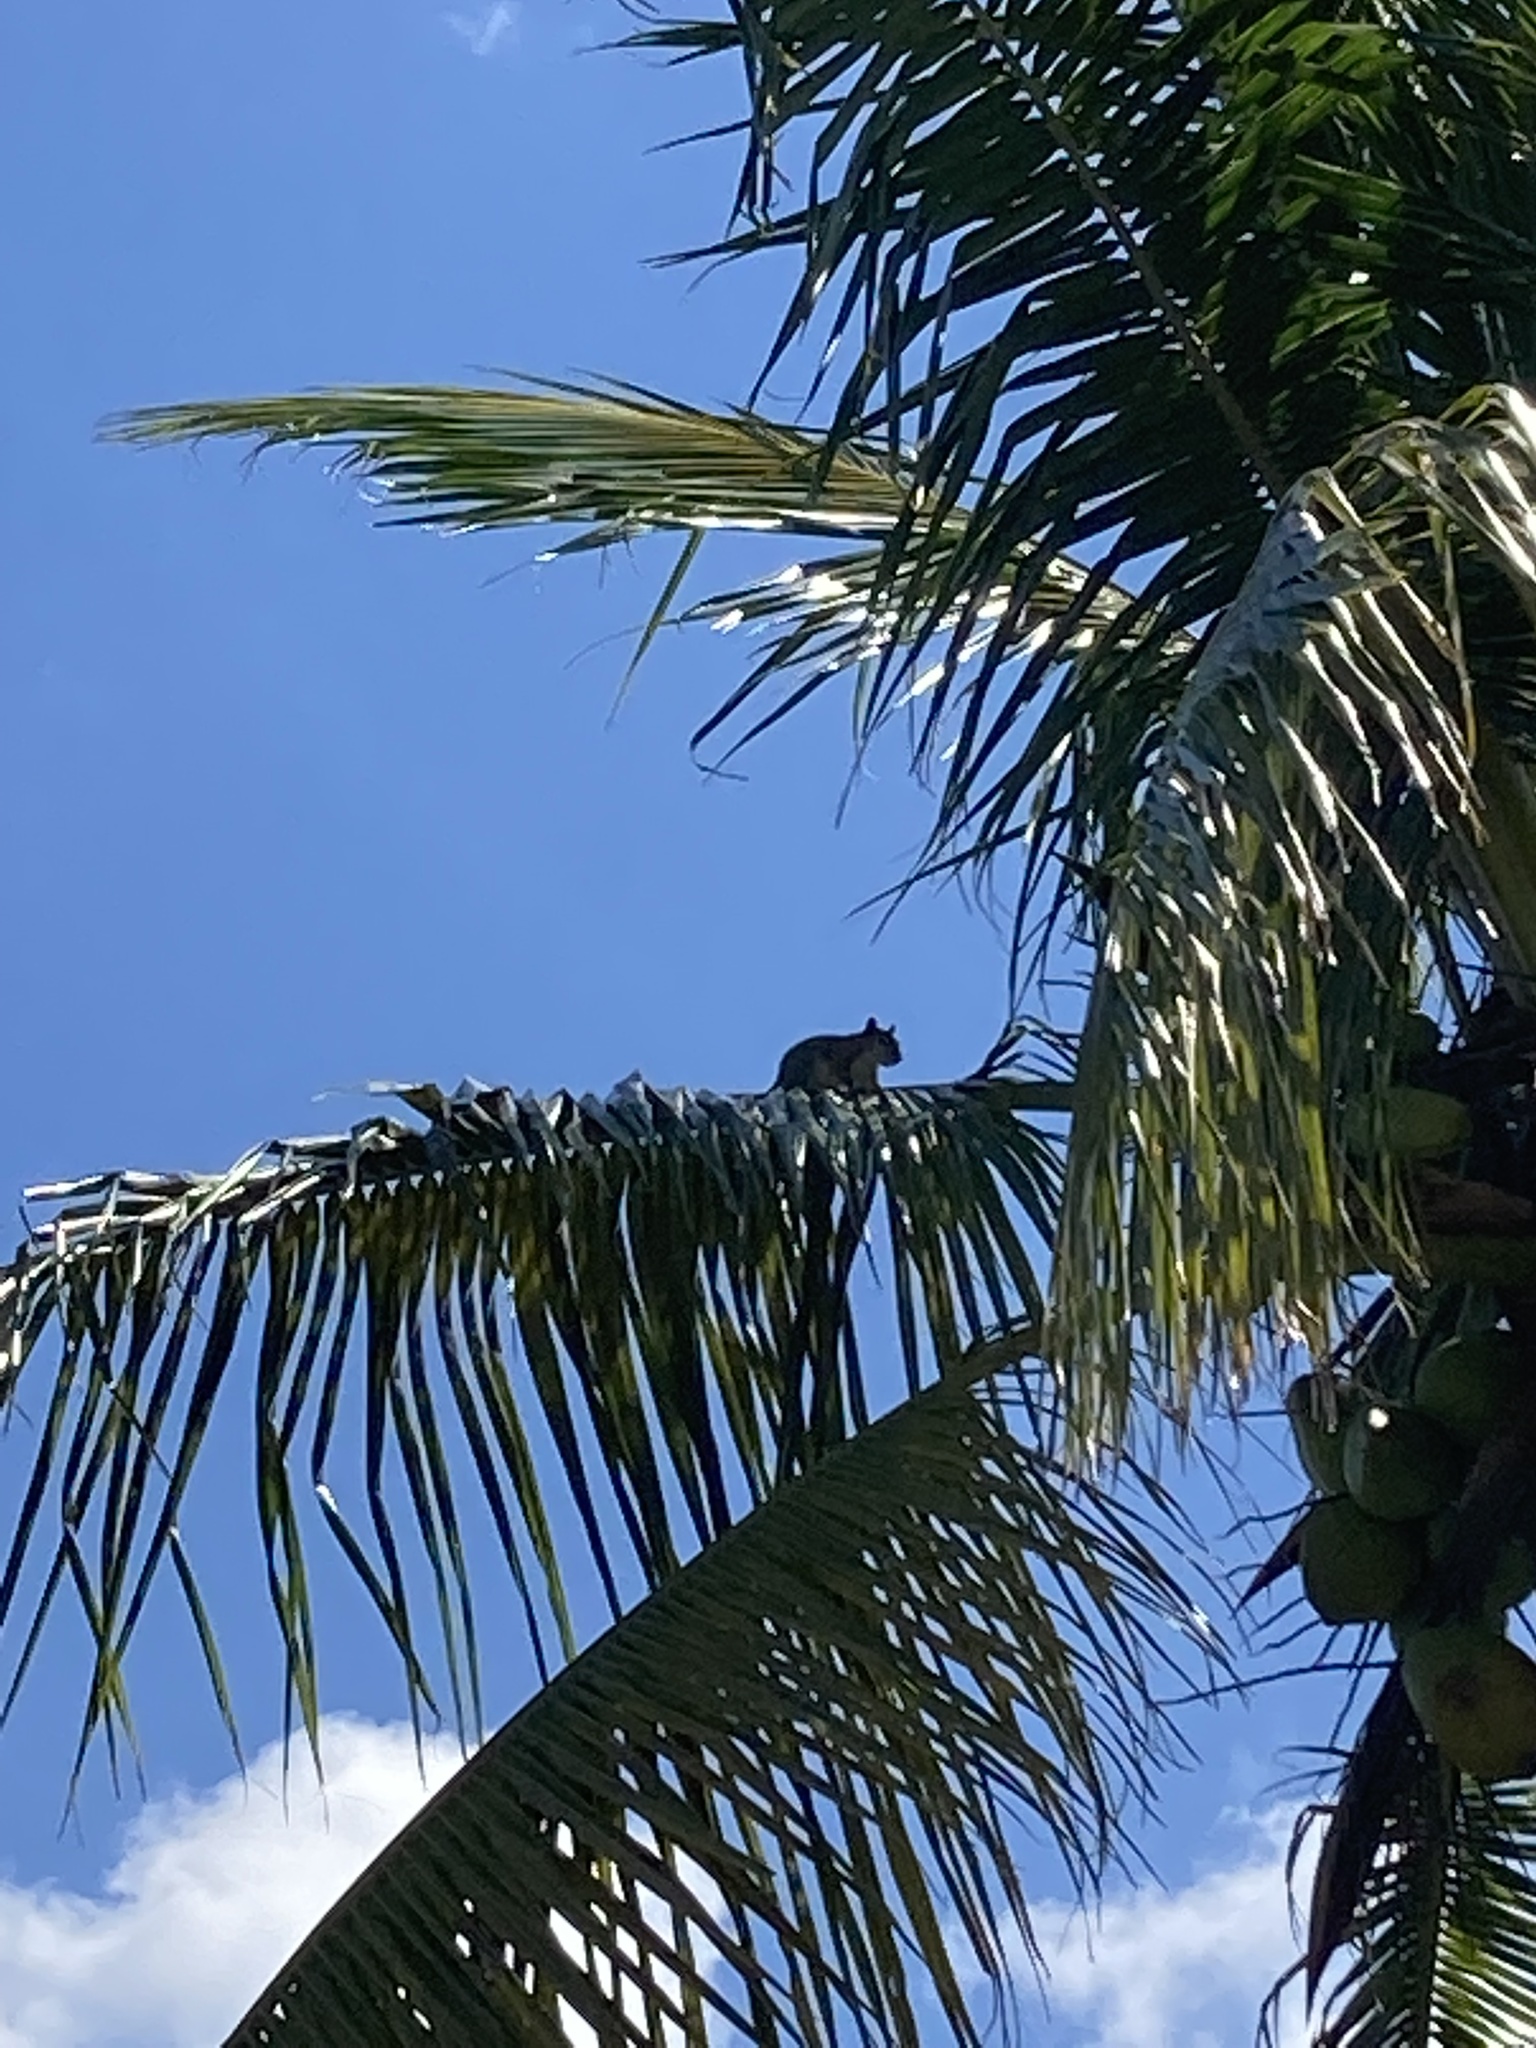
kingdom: Animalia
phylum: Chordata
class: Mammalia
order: Rodentia
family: Sciuridae
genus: Sciurus
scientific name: Sciurus carolinensis
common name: Eastern gray squirrel
